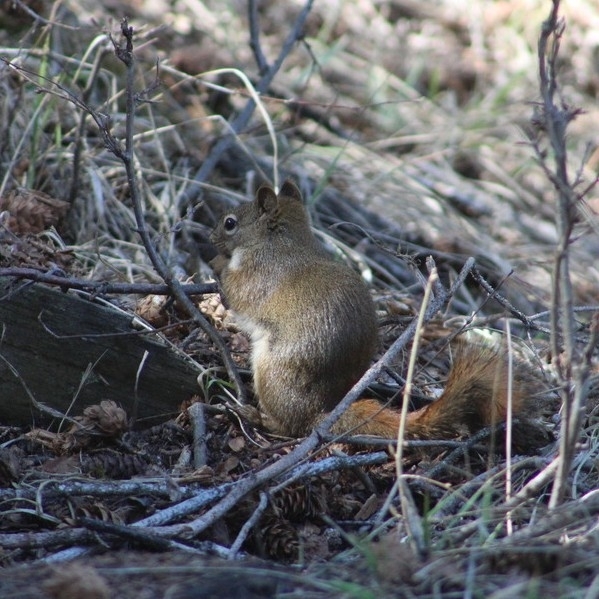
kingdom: Animalia
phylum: Chordata
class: Mammalia
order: Rodentia
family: Sciuridae
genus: Tamiasciurus
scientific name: Tamiasciurus hudsonicus
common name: Red squirrel
